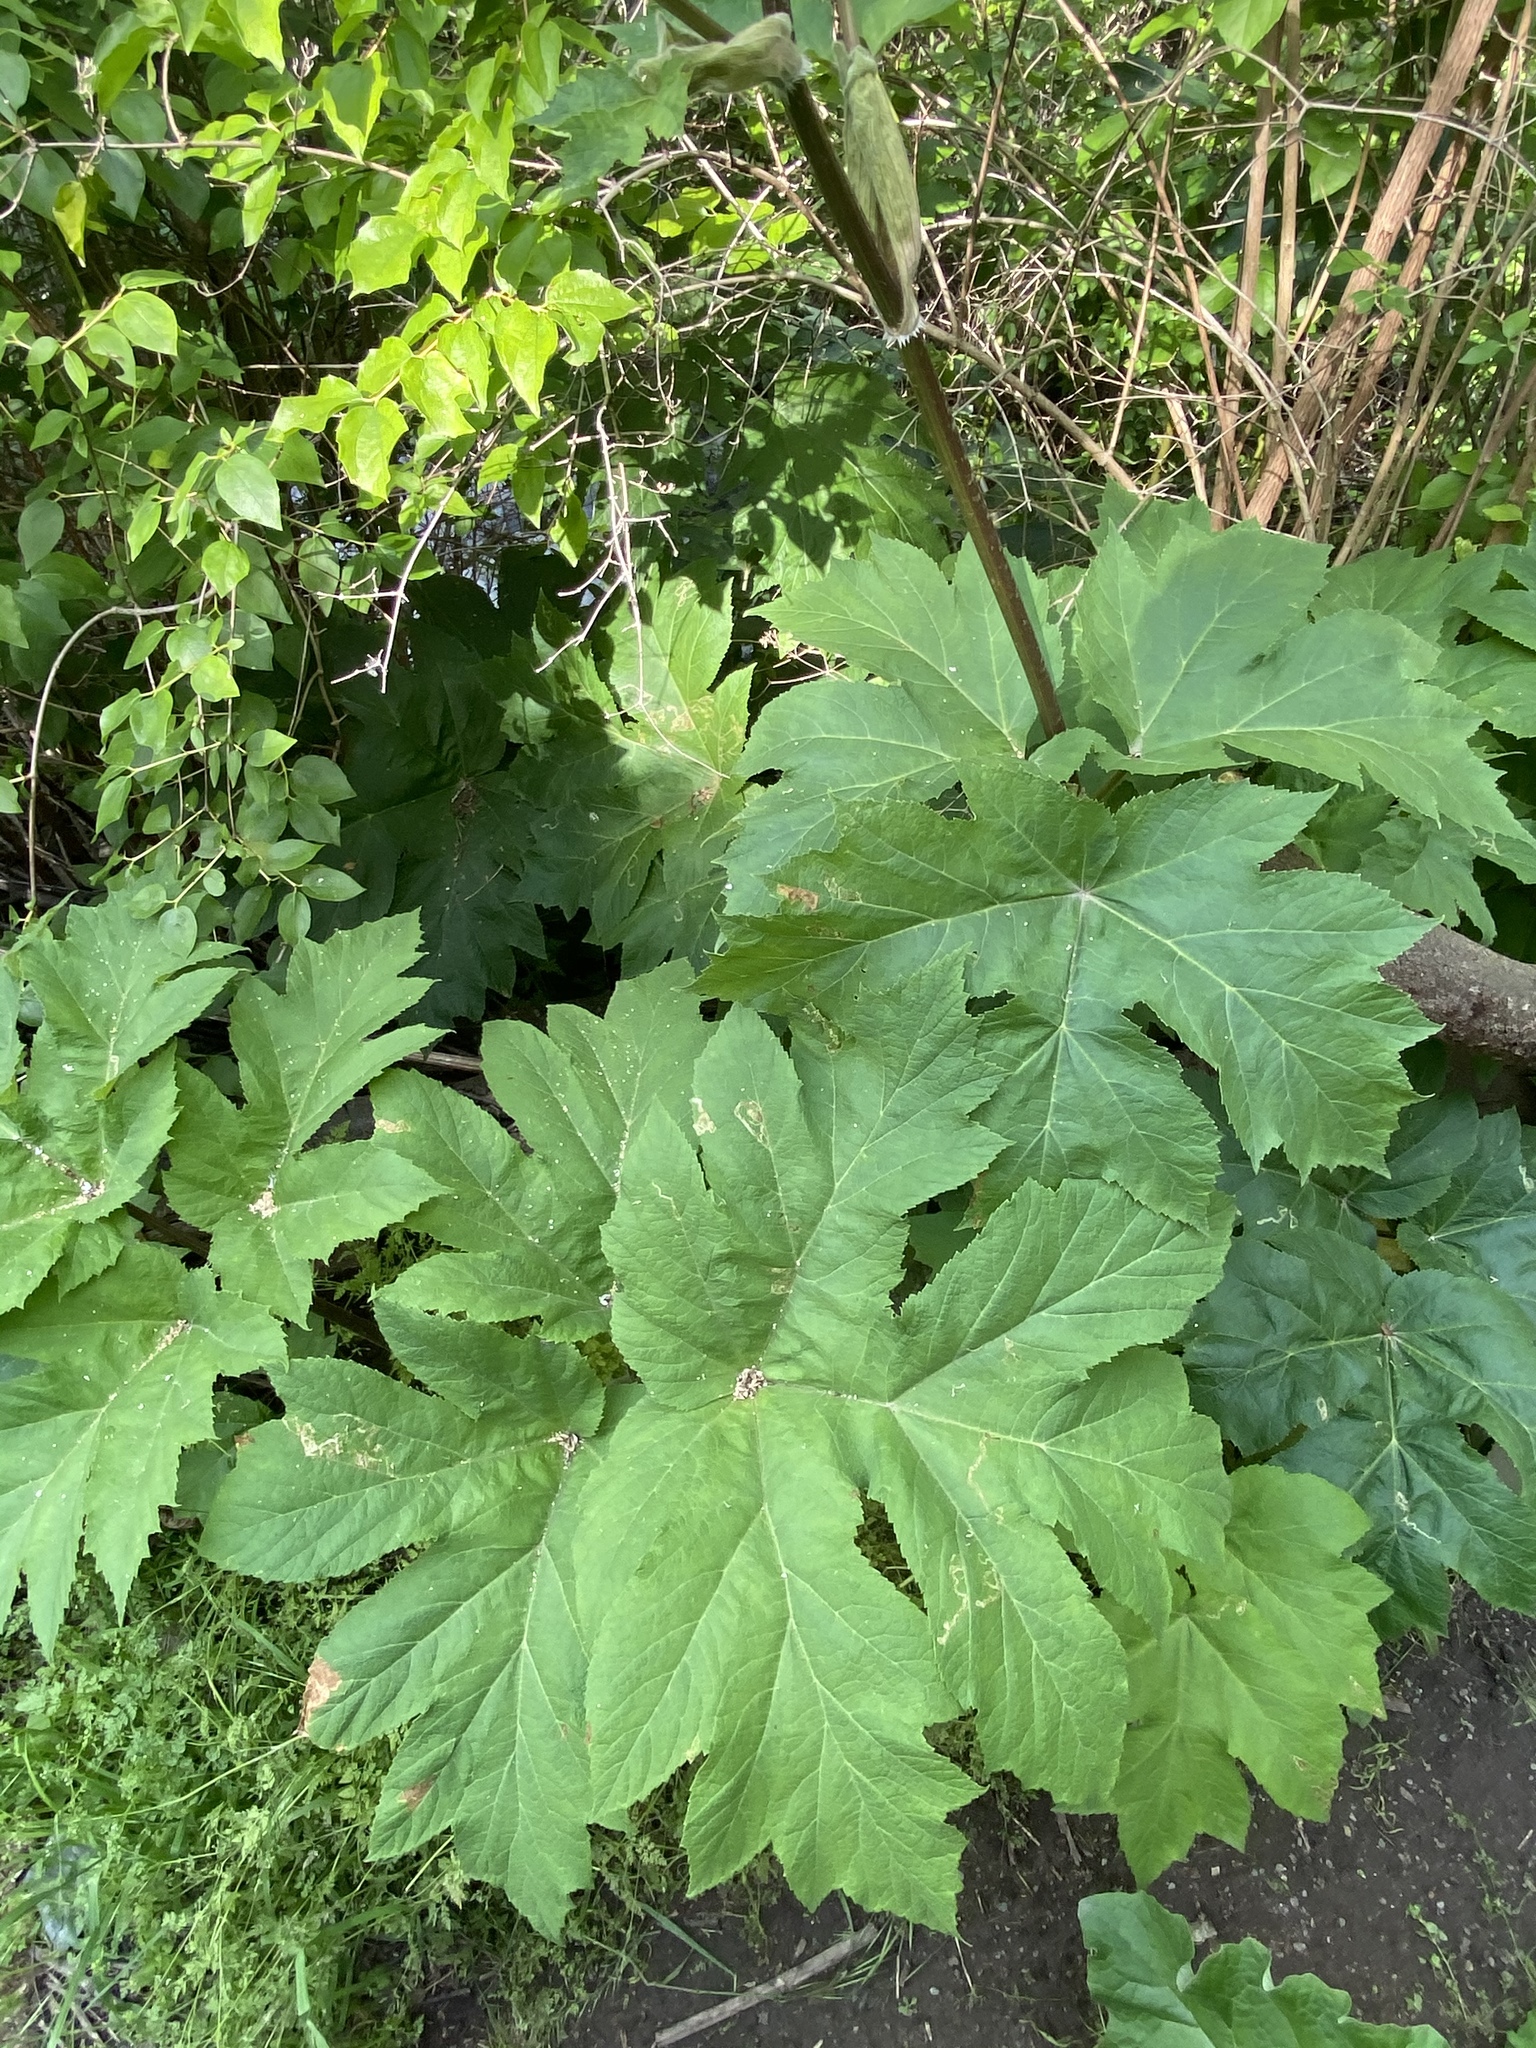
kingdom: Plantae
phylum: Tracheophyta
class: Magnoliopsida
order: Apiales
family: Apiaceae
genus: Heracleum
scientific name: Heracleum maximum
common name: American cow parsnip
